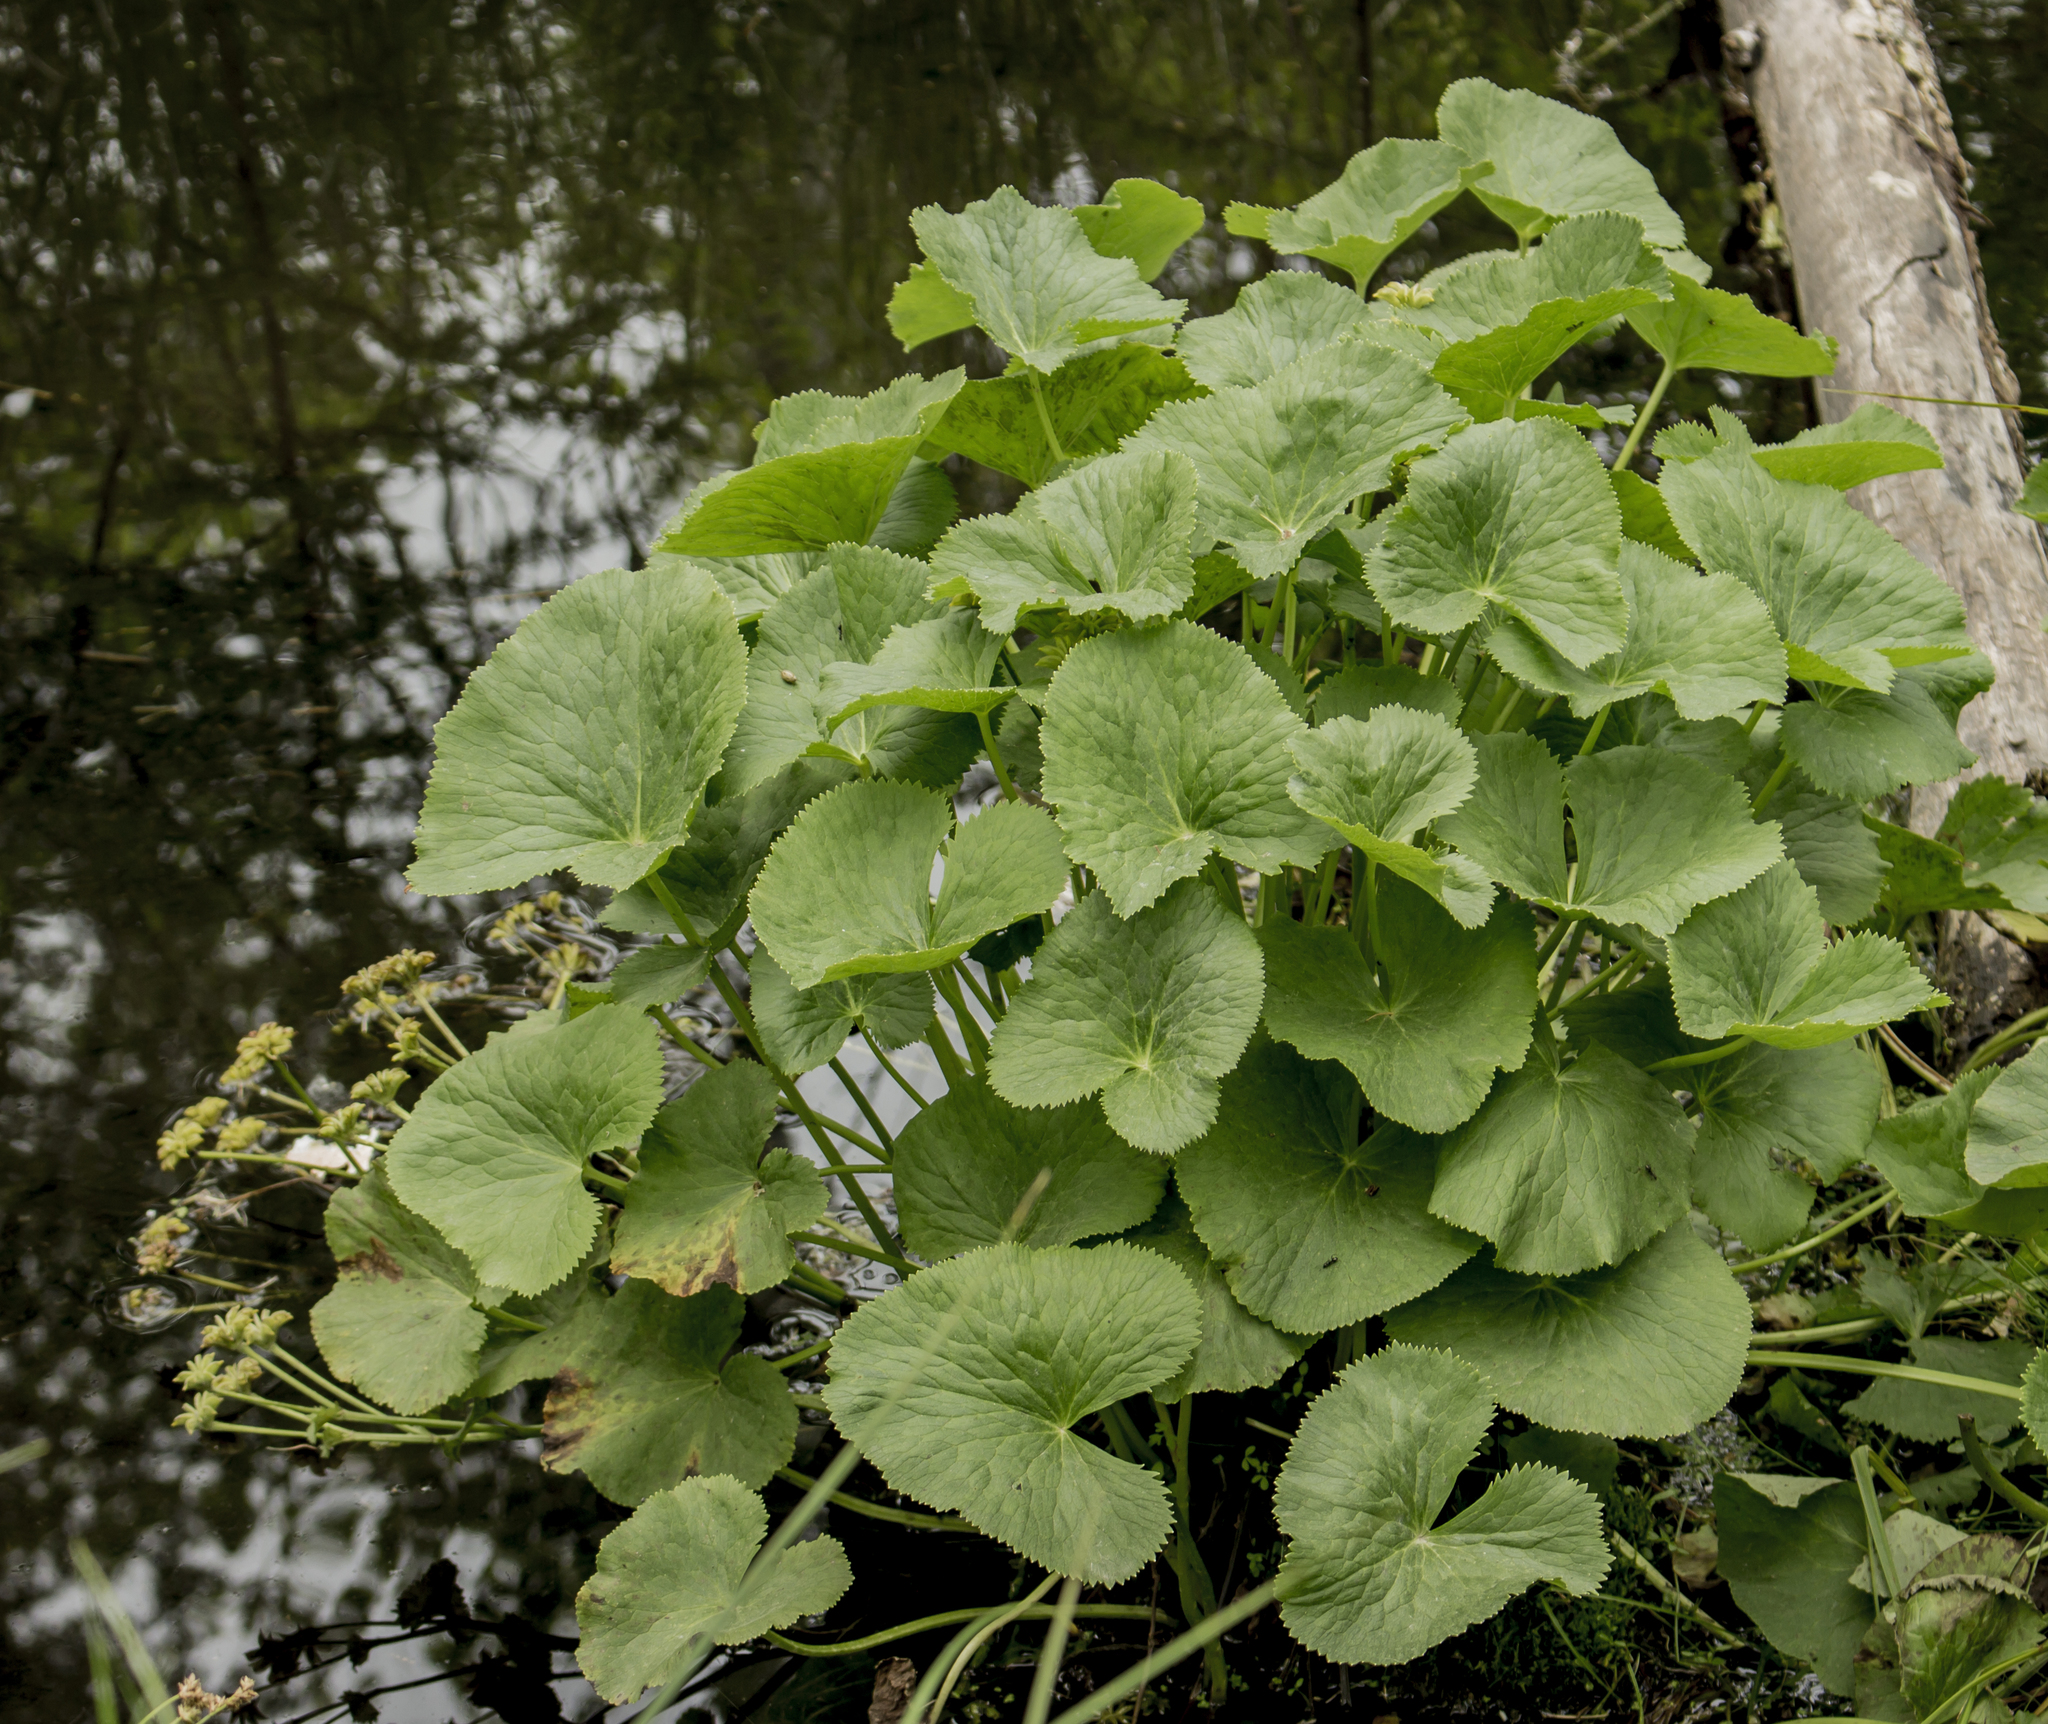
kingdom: Plantae
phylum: Tracheophyta
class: Magnoliopsida
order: Ranunculales
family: Ranunculaceae
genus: Caltha
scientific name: Caltha palustris
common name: Marsh marigold
